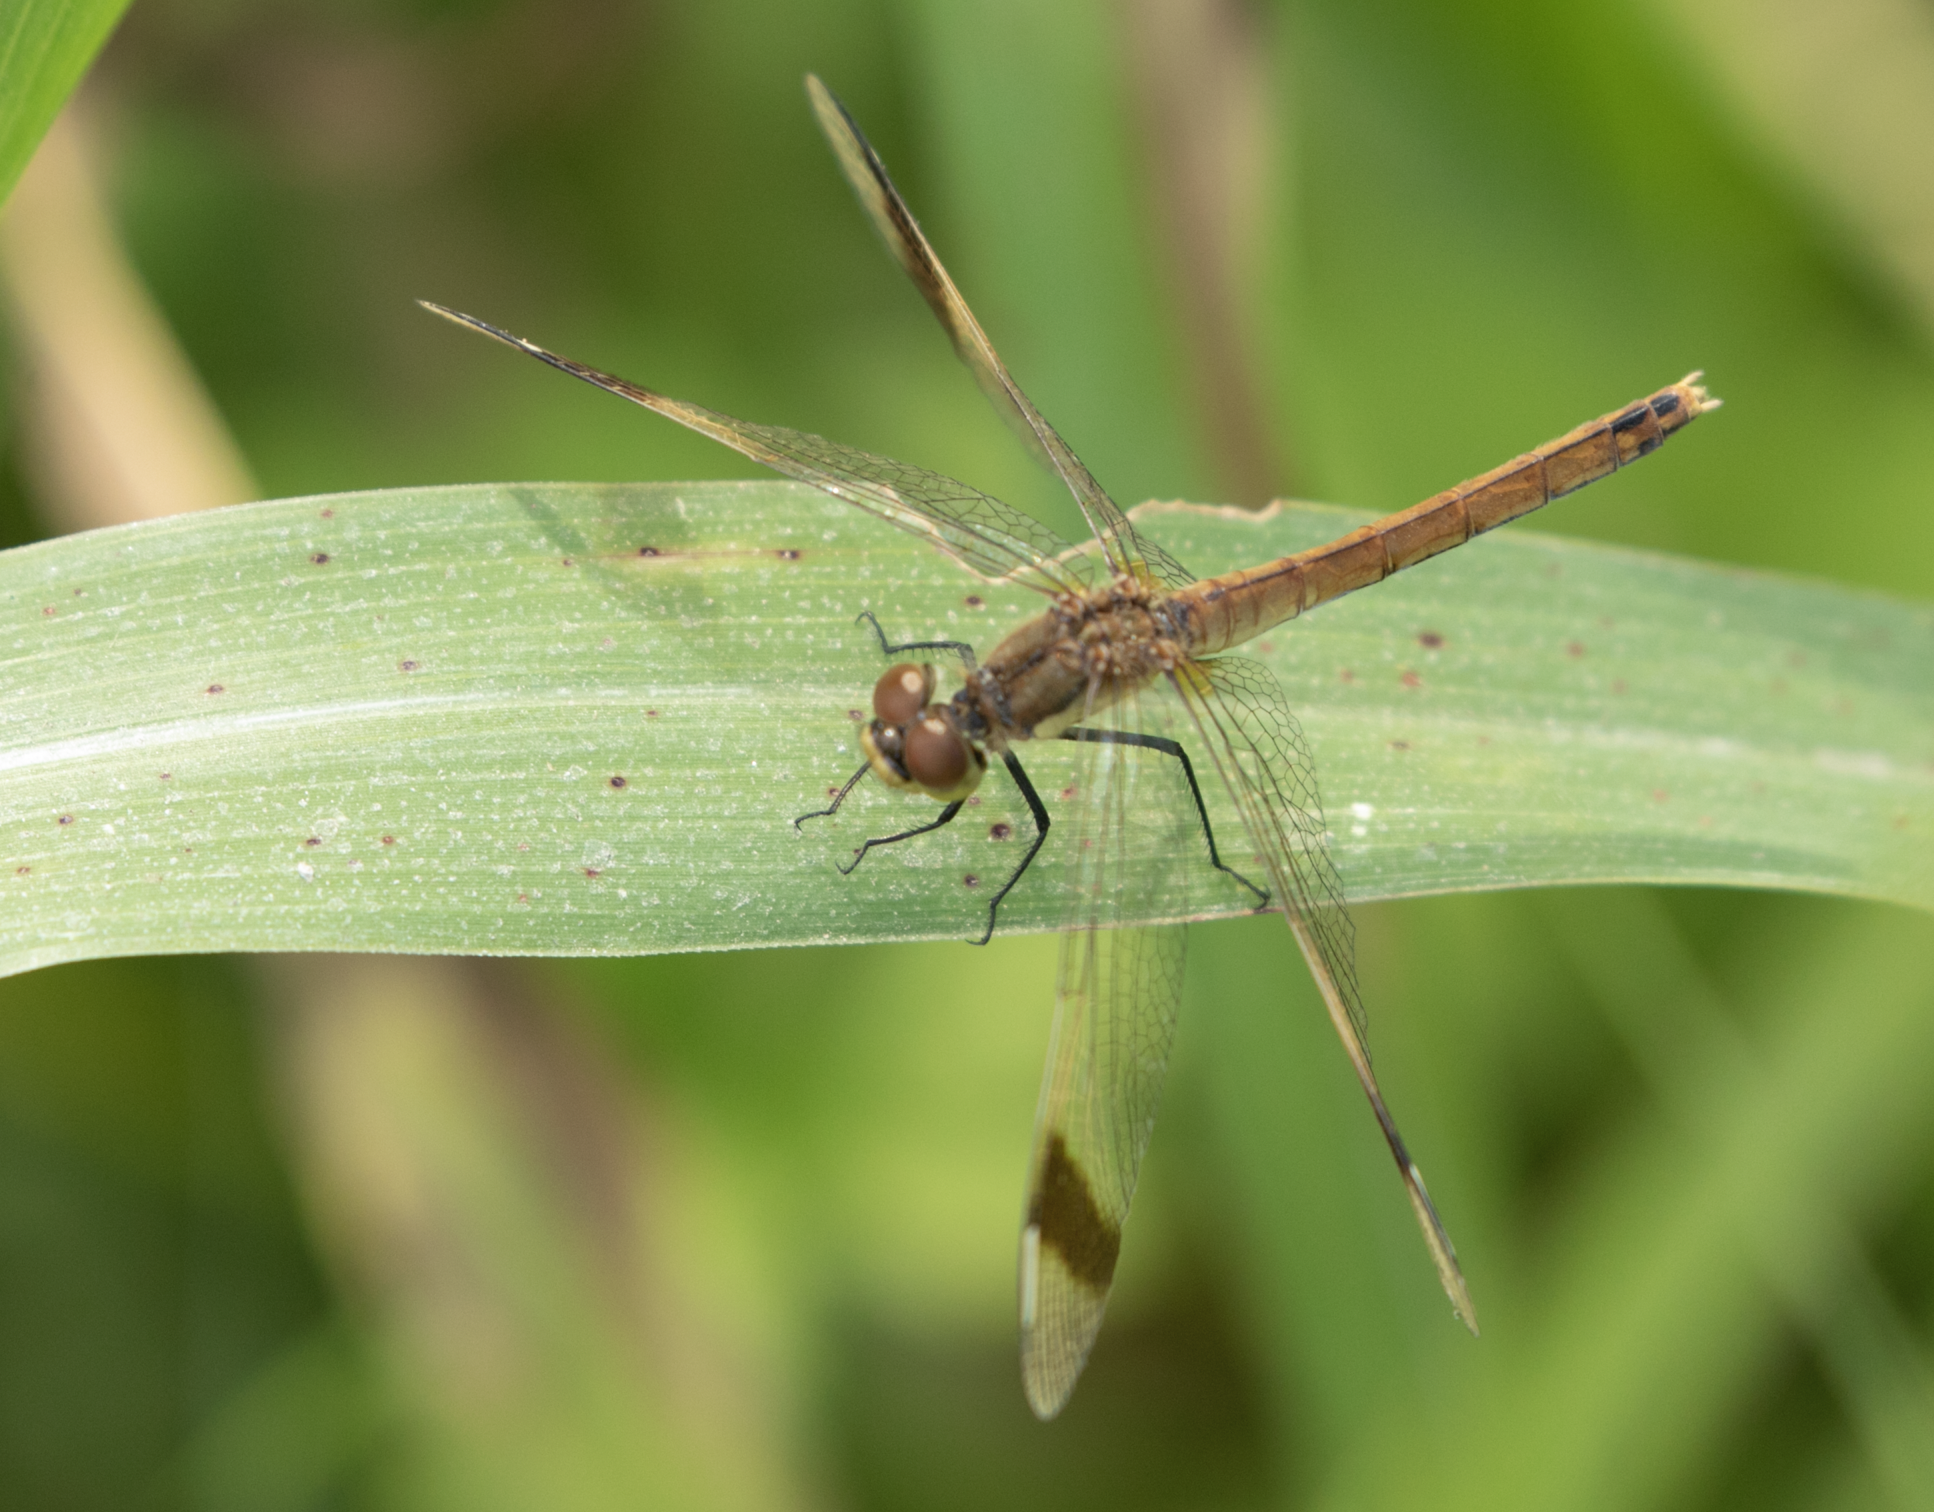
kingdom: Animalia
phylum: Arthropoda
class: Insecta
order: Odonata
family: Libellulidae
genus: Sympetrum
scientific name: Sympetrum pedemontanum
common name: Banded darter
